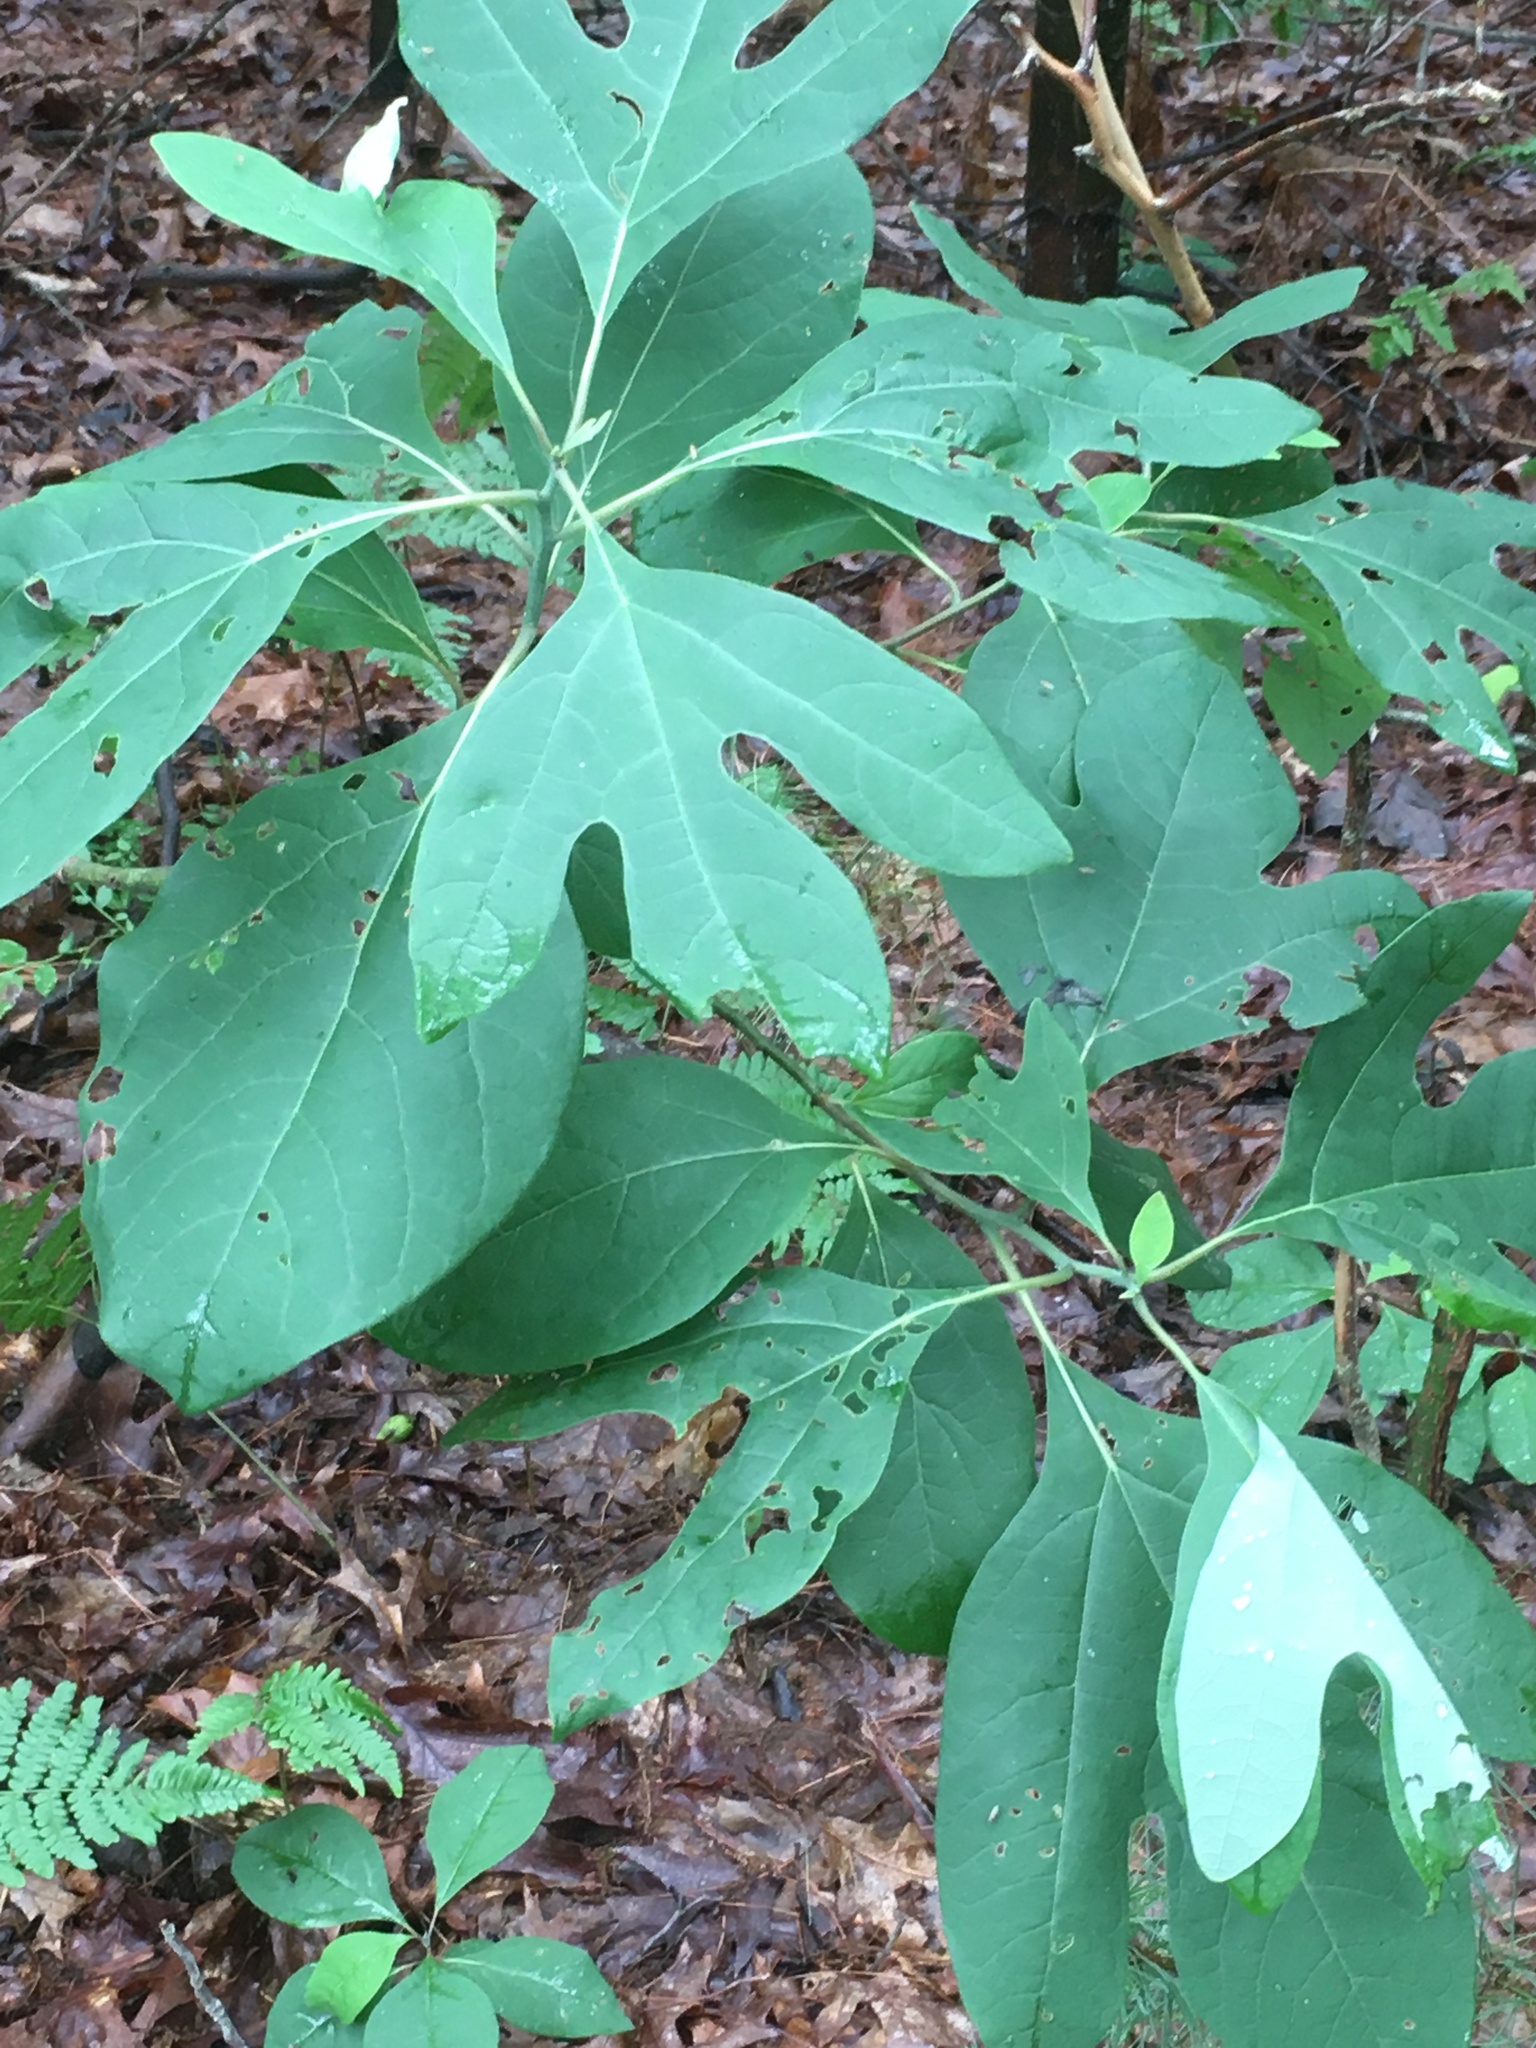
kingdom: Plantae
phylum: Tracheophyta
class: Magnoliopsida
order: Laurales
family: Lauraceae
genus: Sassafras
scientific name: Sassafras albidum
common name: Sassafras
